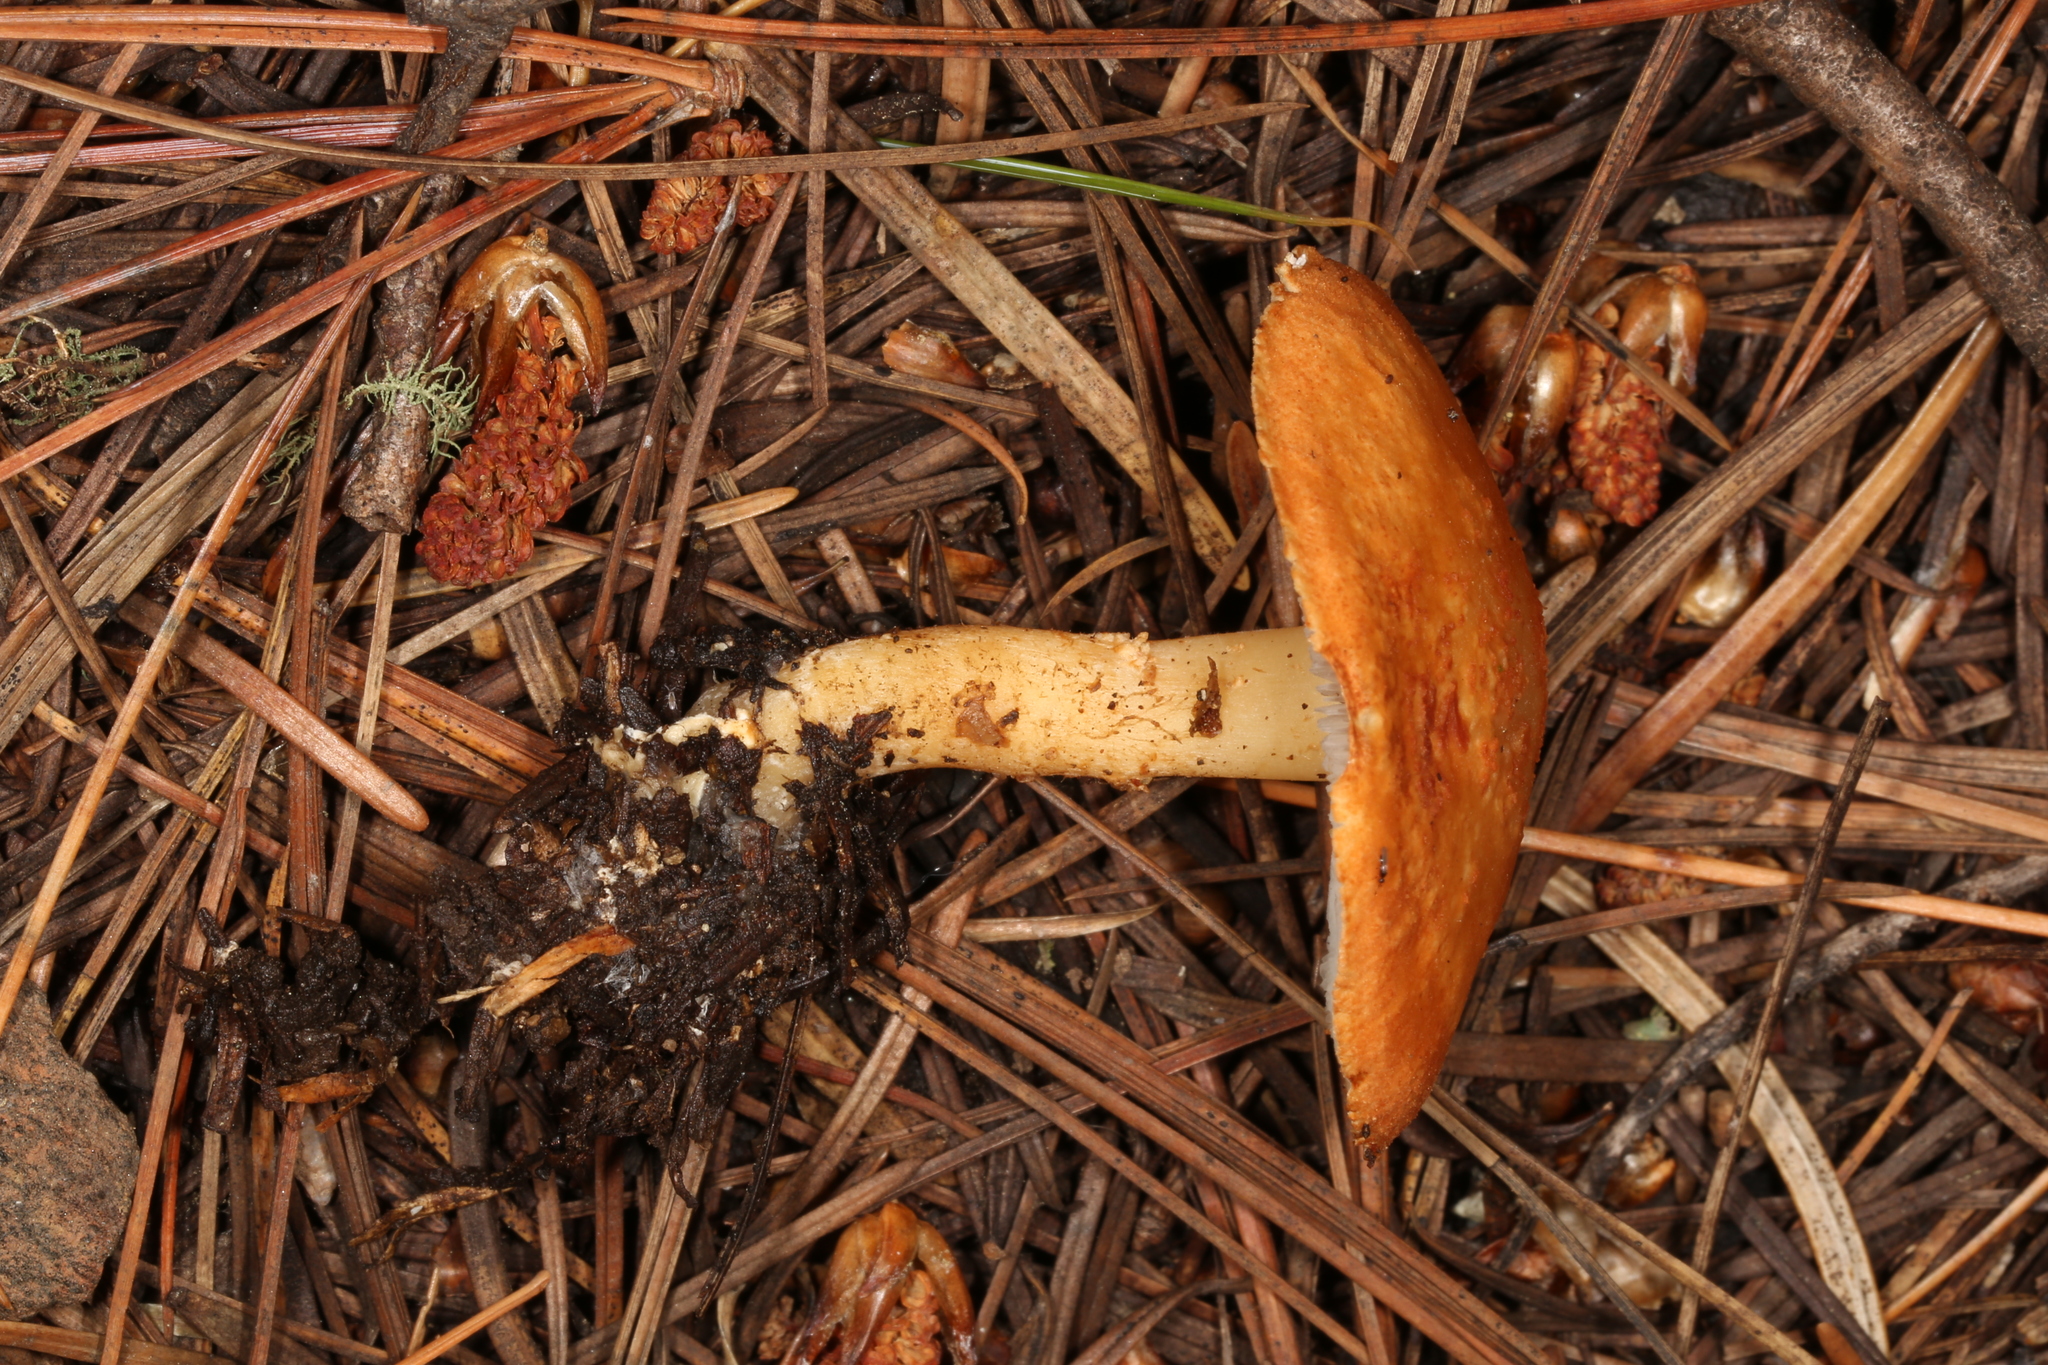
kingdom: Fungi
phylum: Basidiomycota
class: Agaricomycetes
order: Agaricales
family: Agaricaceae
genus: Cystodermella
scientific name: Cystodermella cinnabarina
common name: Cinnabar powdercap
